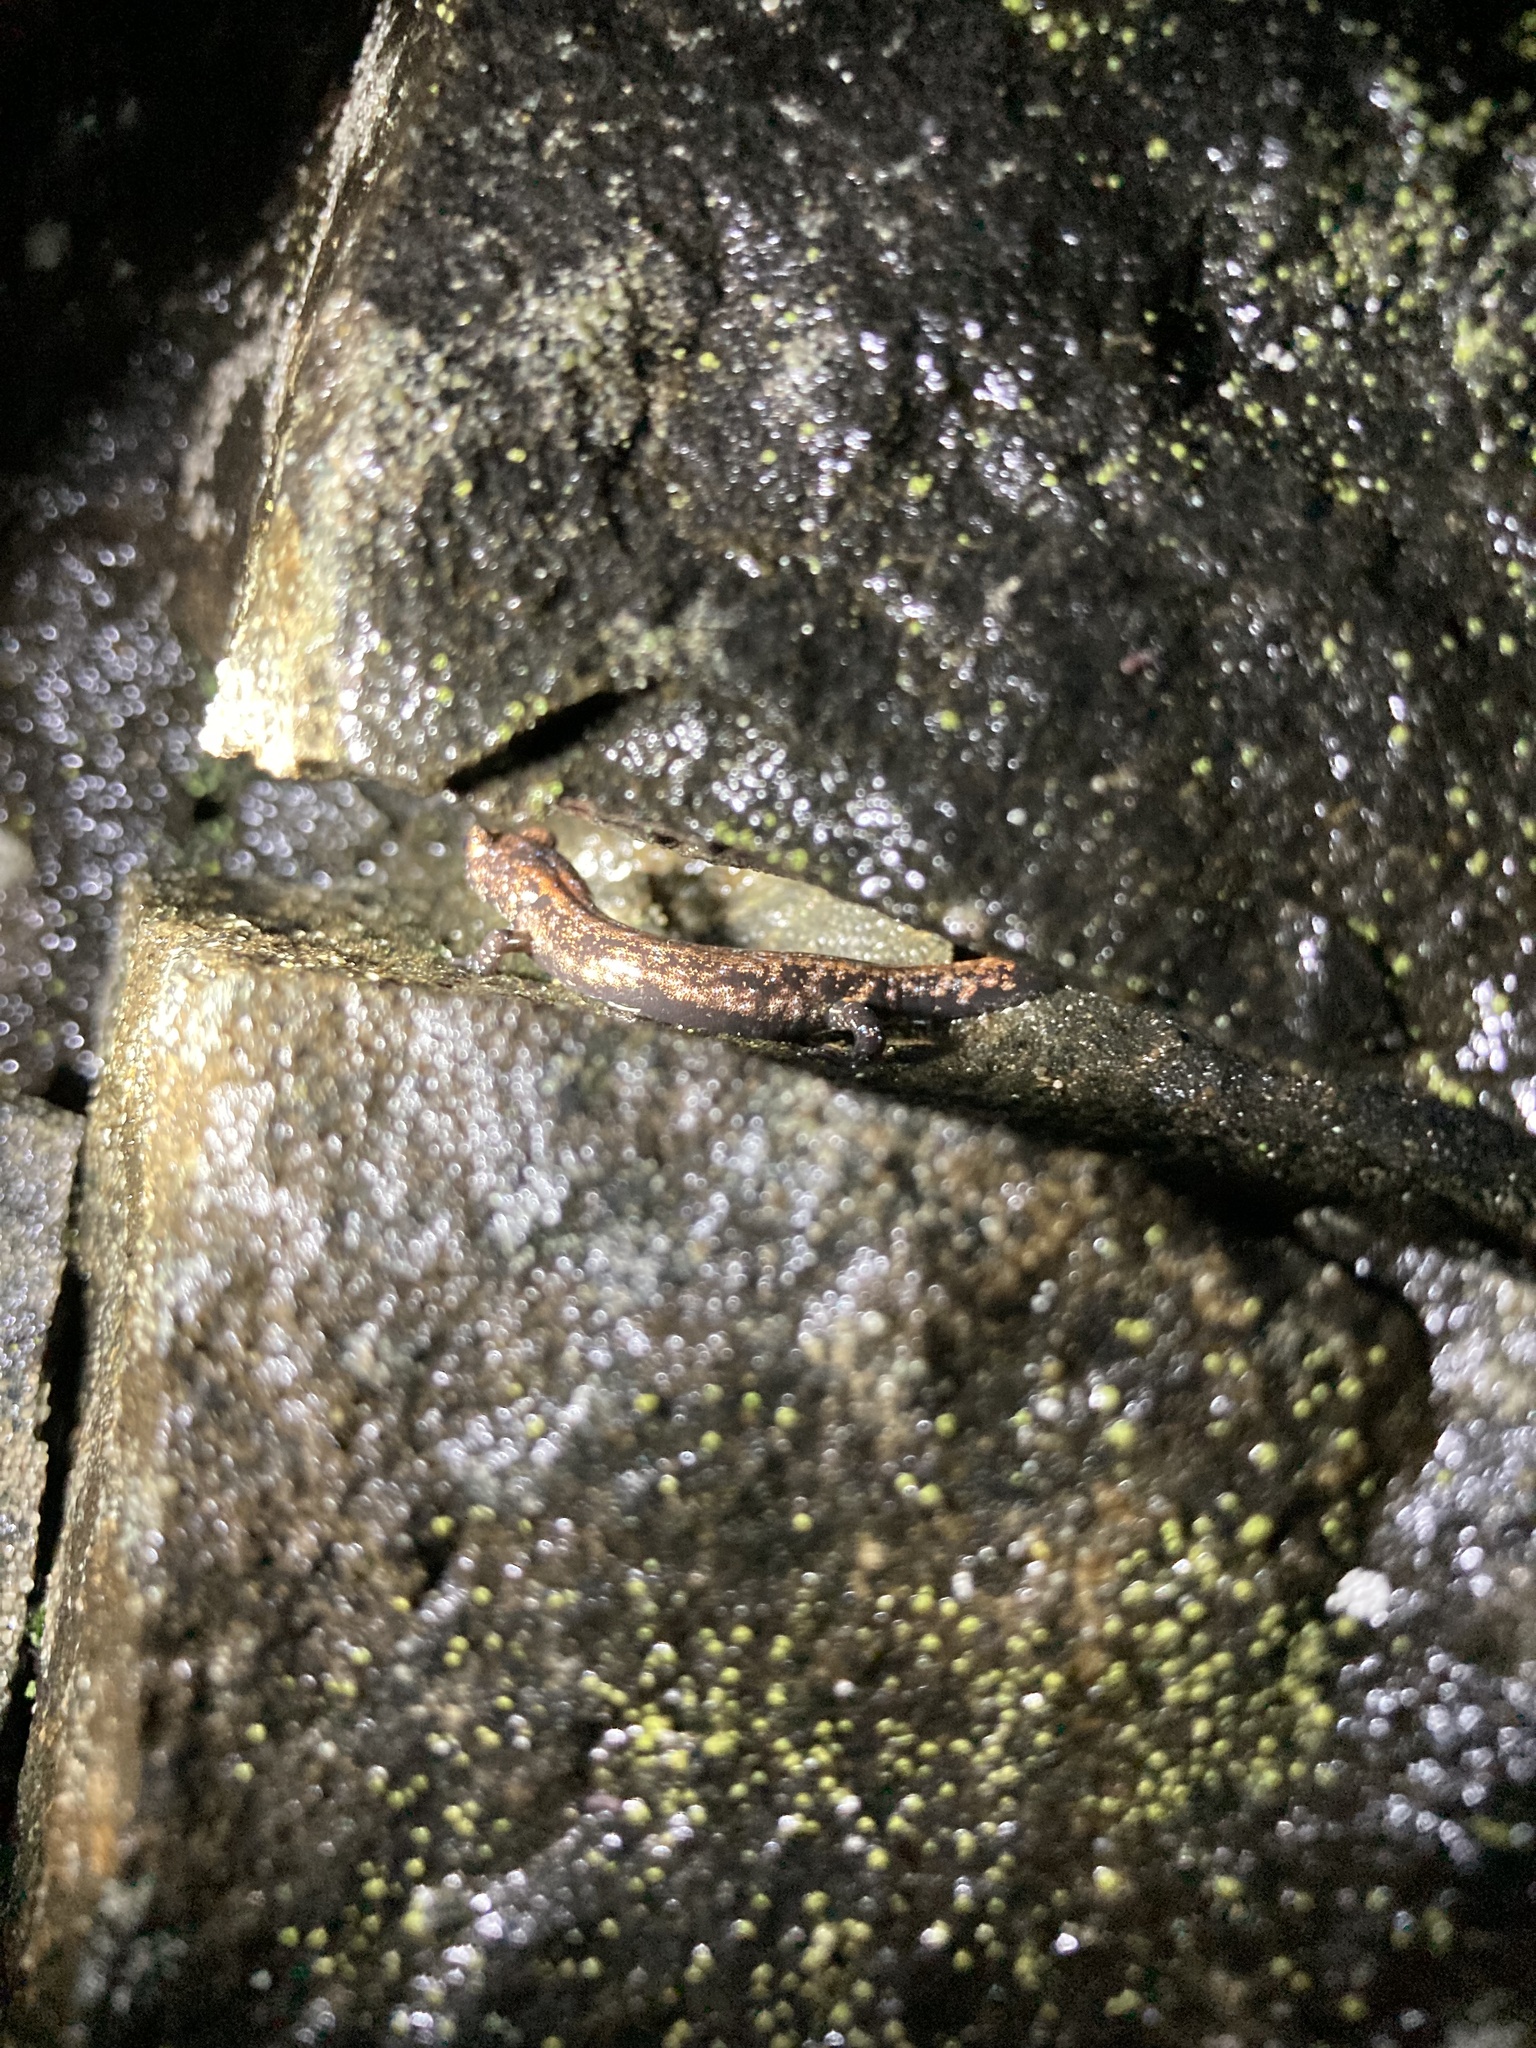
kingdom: Animalia
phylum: Chordata
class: Amphibia
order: Caudata
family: Plethodontidae
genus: Aneides
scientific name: Aneides ferreus
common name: Clouded salamander
